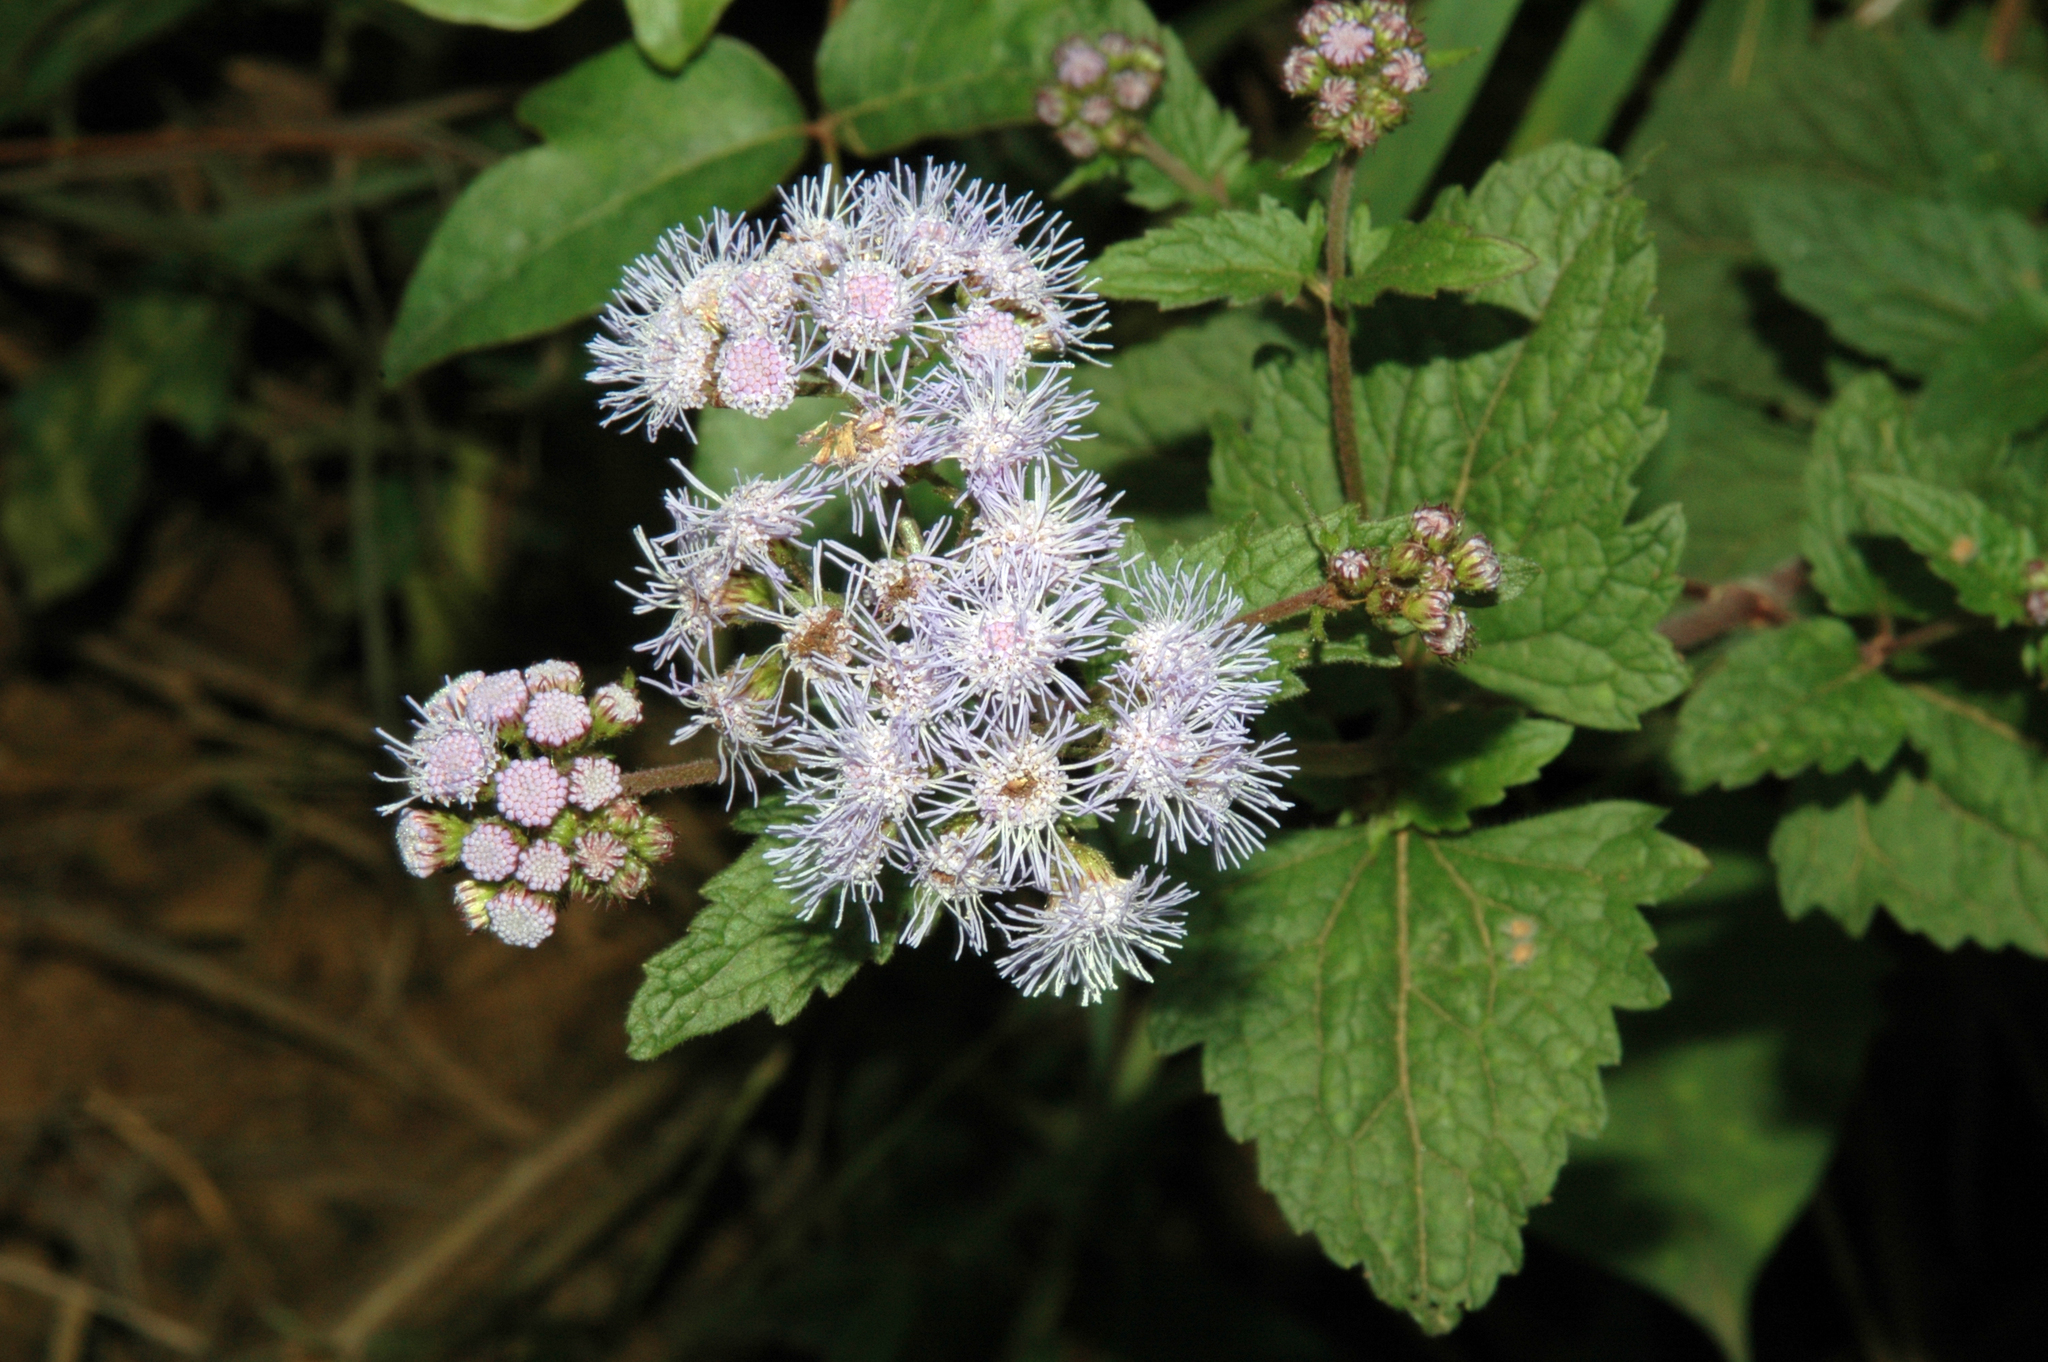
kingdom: Plantae
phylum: Tracheophyta
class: Magnoliopsida
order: Asterales
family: Asteraceae
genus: Conoclinium
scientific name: Conoclinium coelestinum
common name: Blue mistflower
